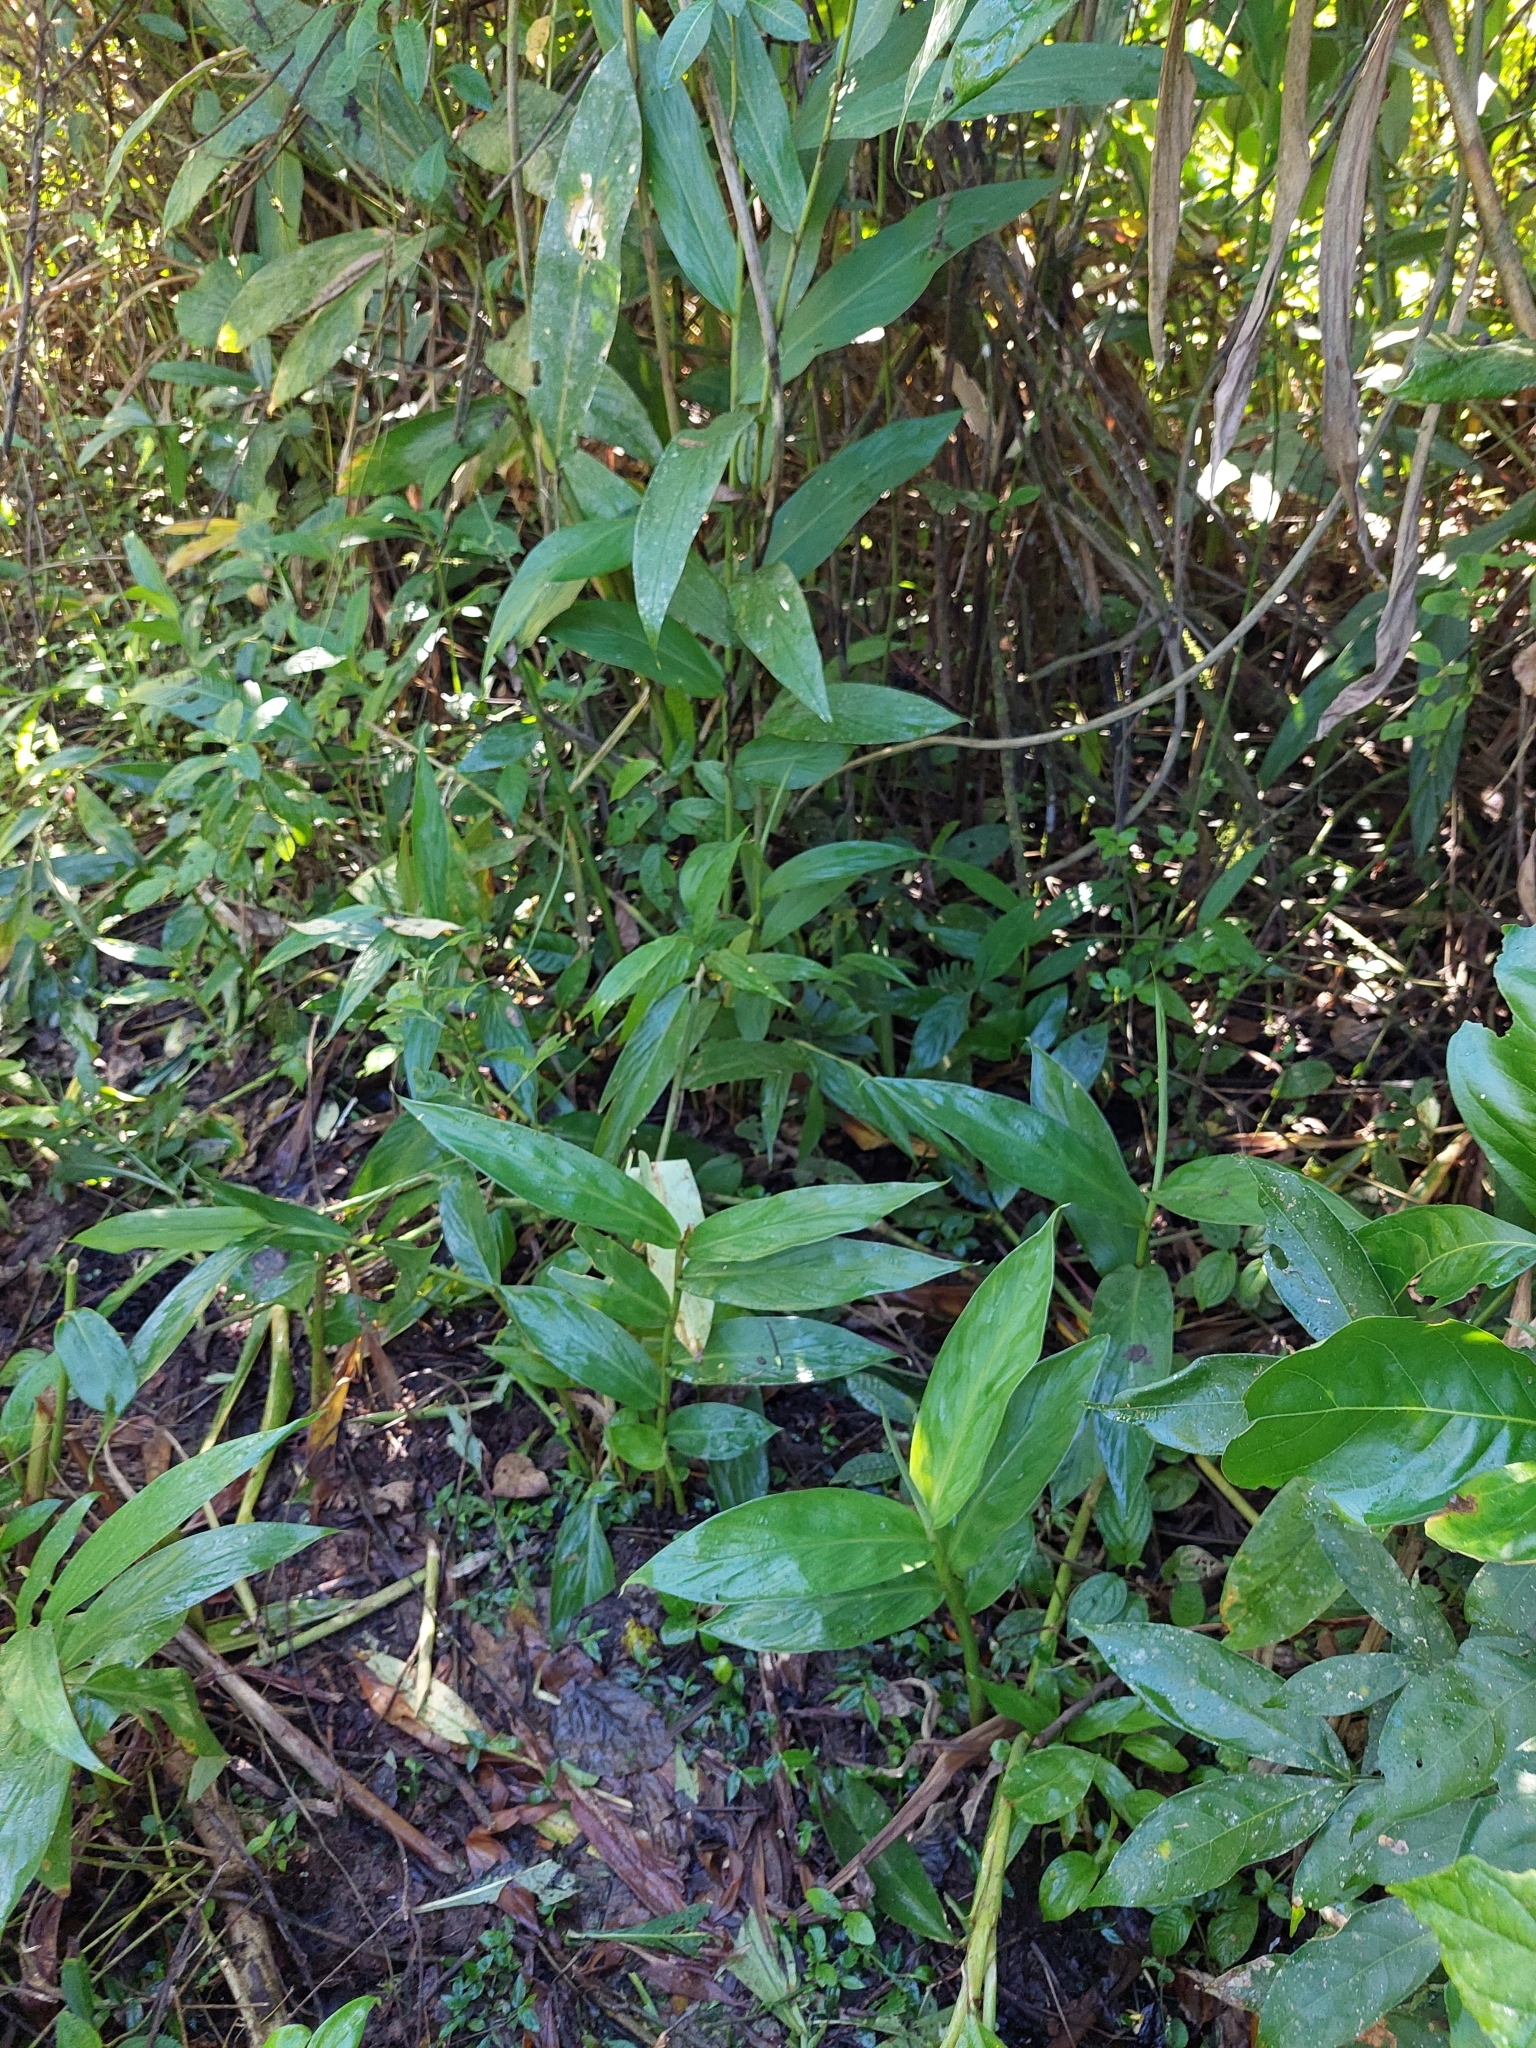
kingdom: Plantae
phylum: Tracheophyta
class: Liliopsida
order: Zingiberales
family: Zingiberaceae
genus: Hedychium
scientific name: Hedychium coronarium
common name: White garland-lily
